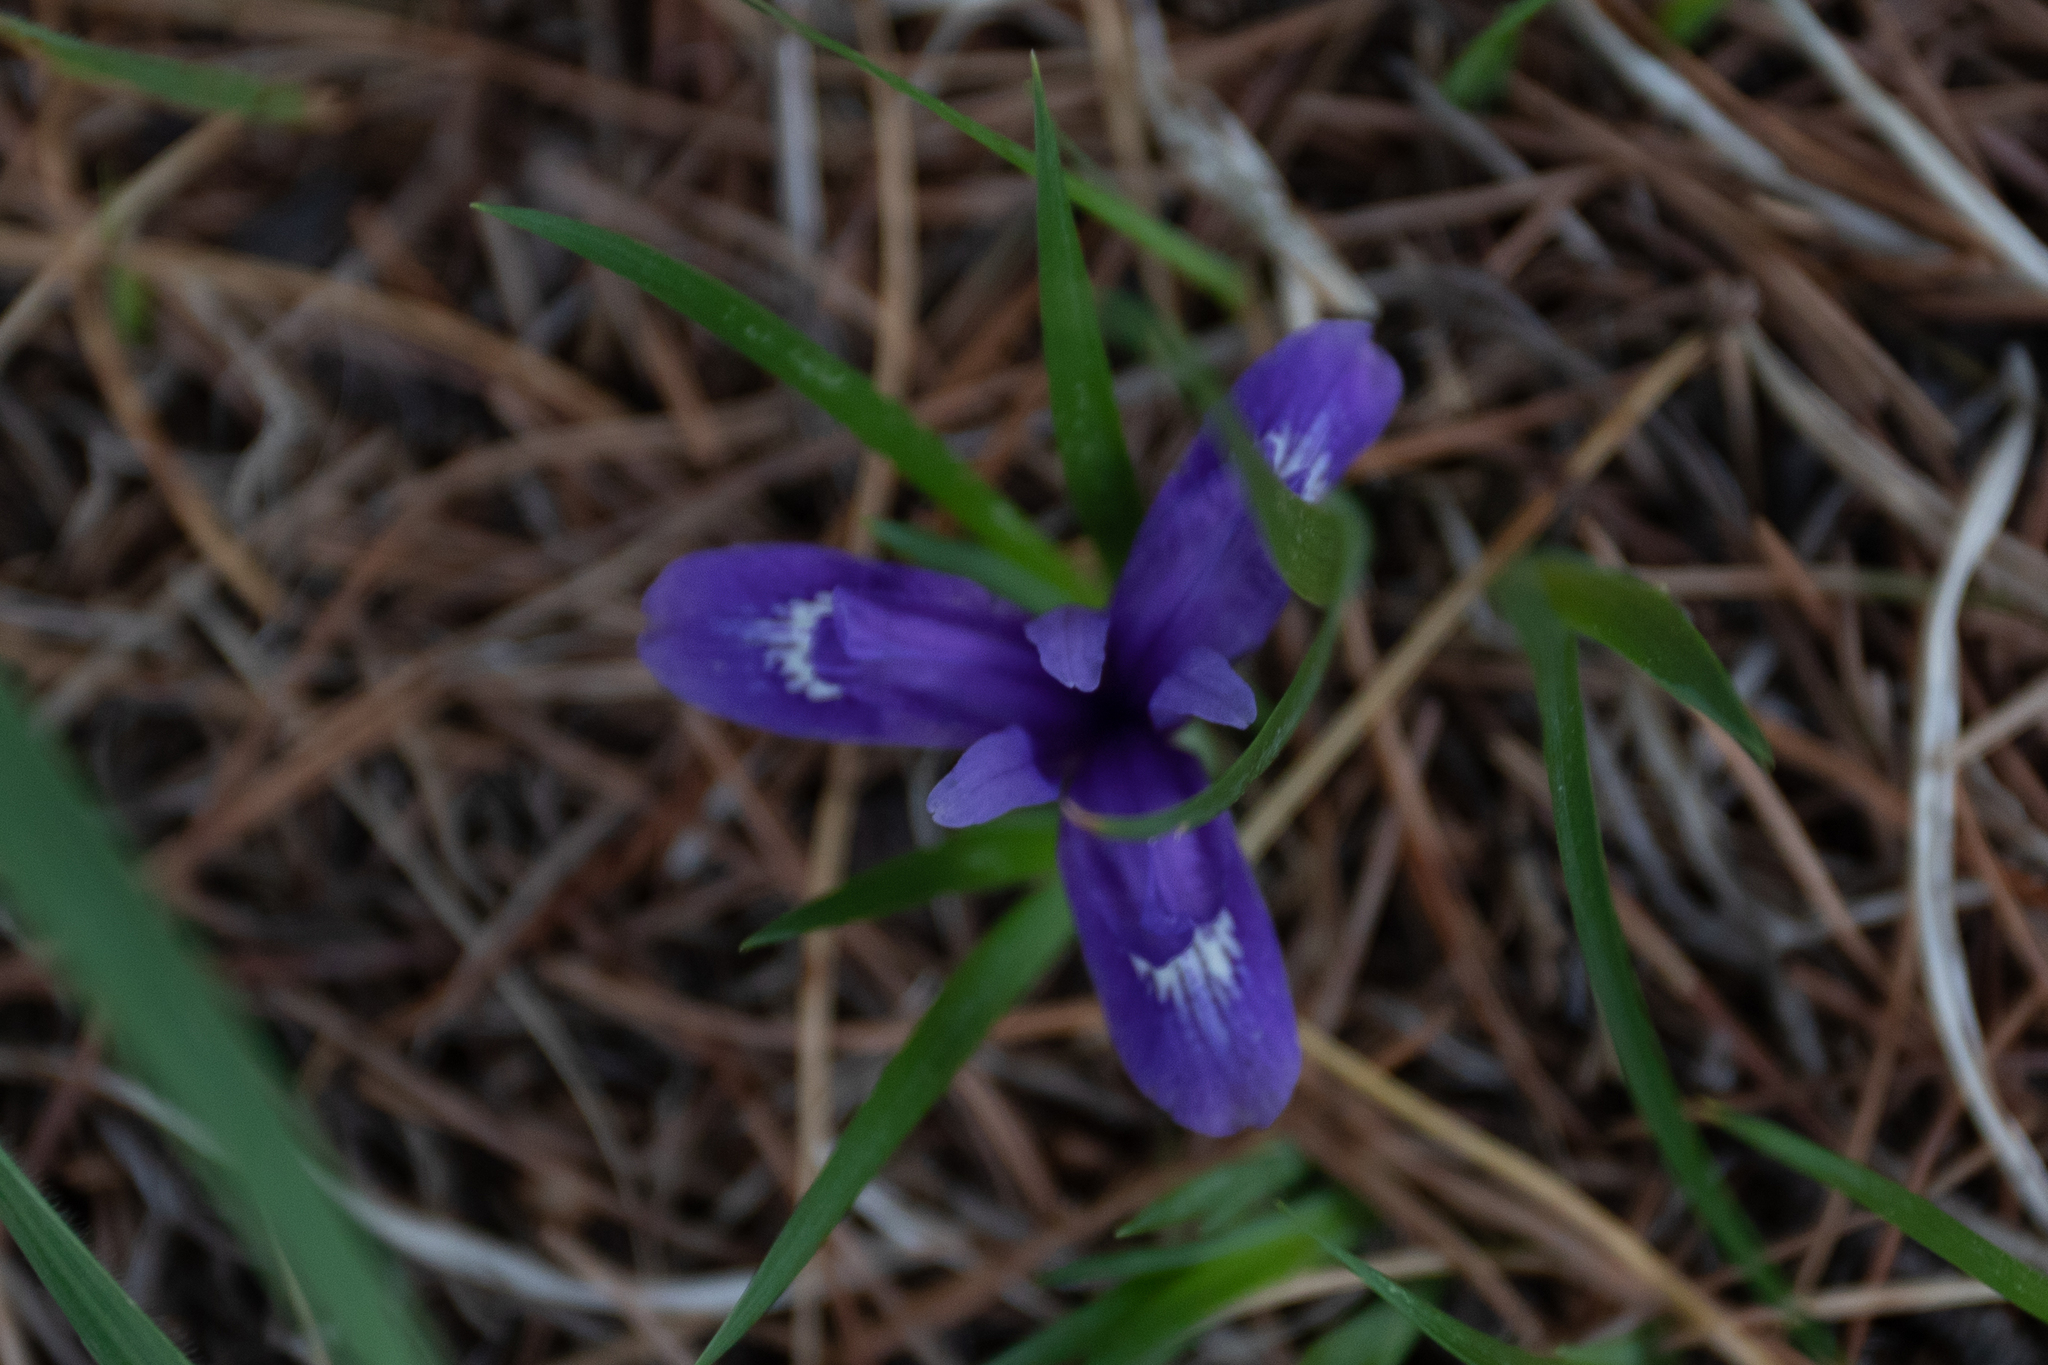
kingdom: Plantae
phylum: Tracheophyta
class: Liliopsida
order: Asparagales
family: Iridaceae
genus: Iris
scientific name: Iris ruthenica
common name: Purple-bract iris
